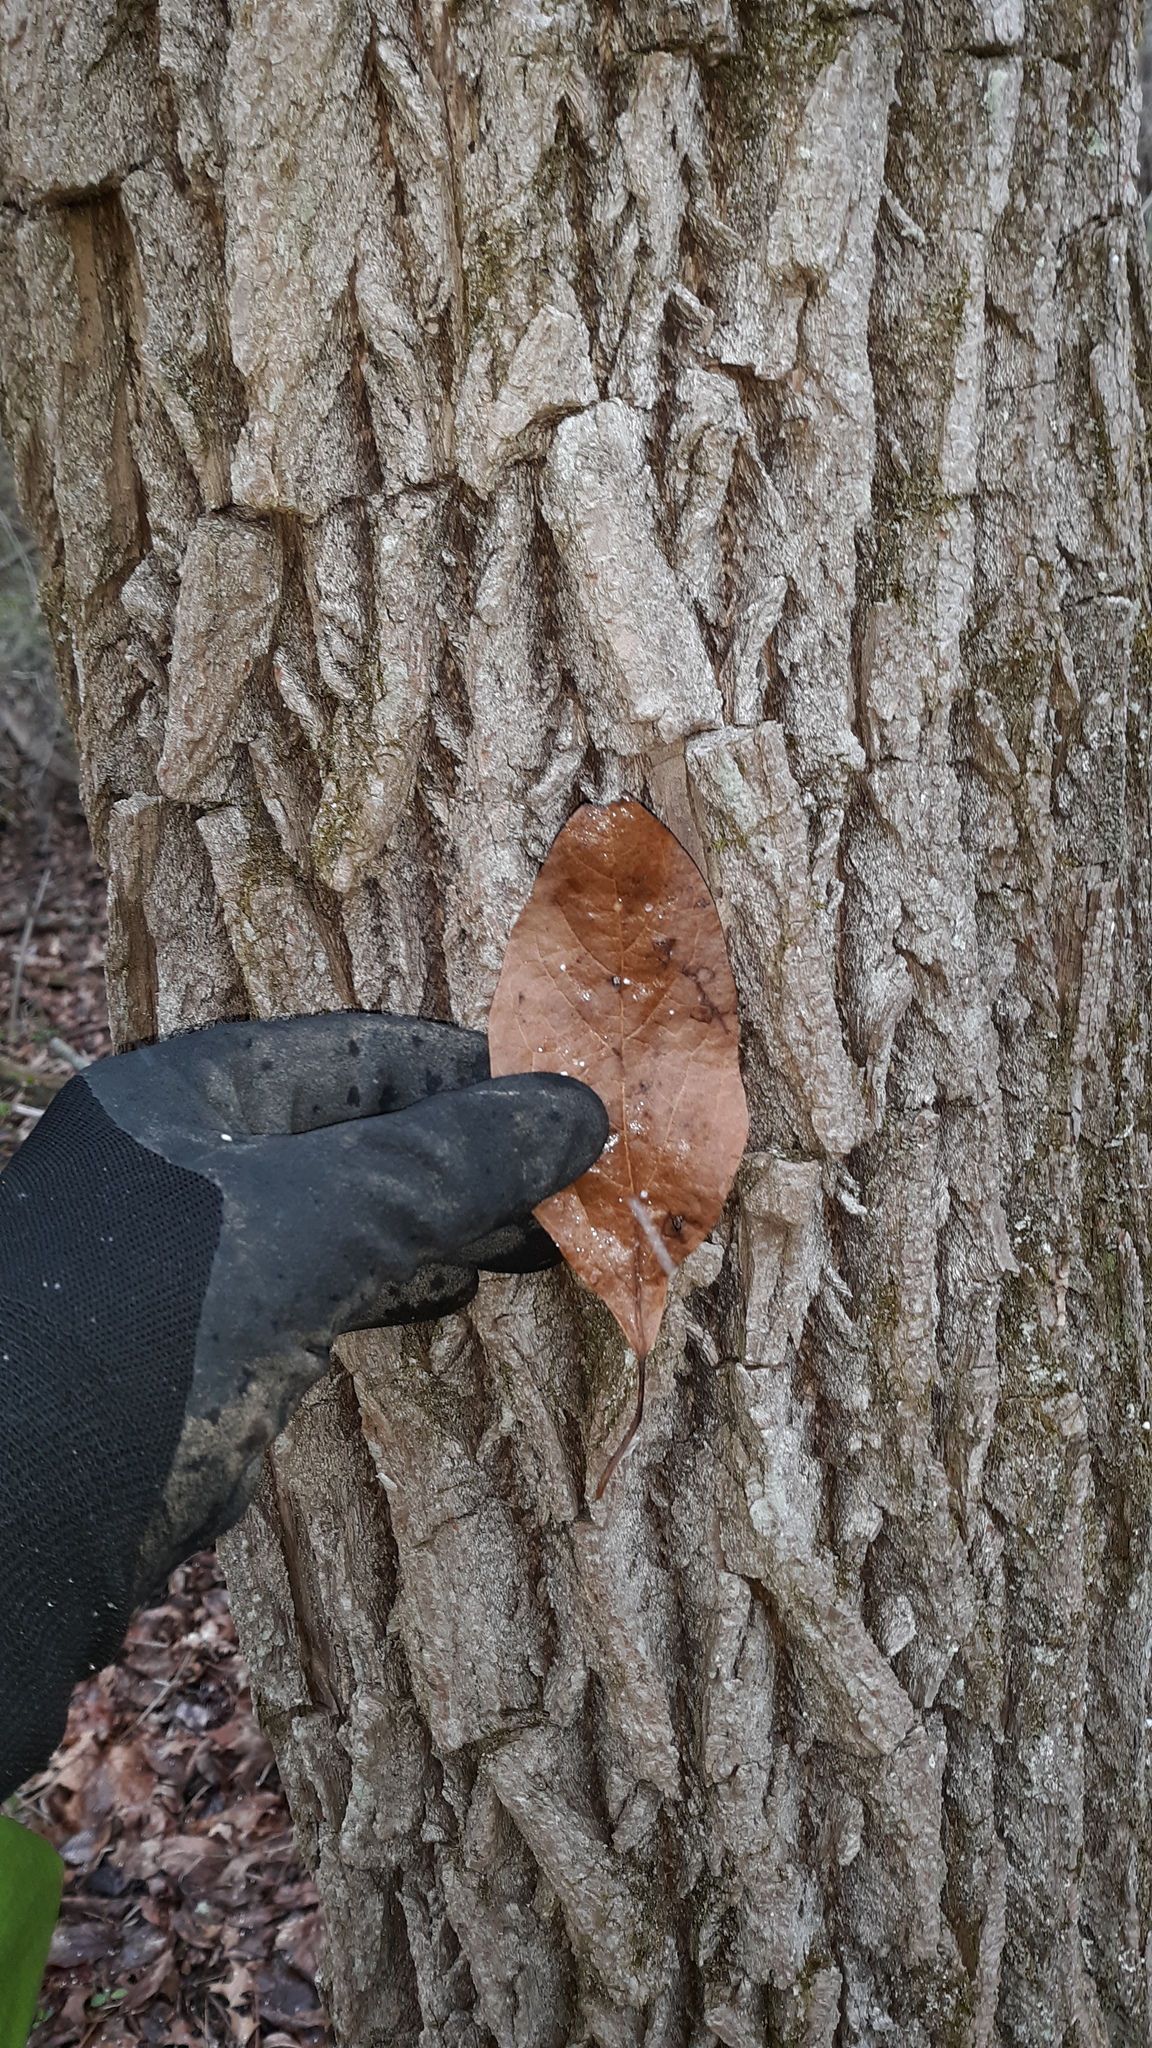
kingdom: Plantae
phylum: Tracheophyta
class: Magnoliopsida
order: Laurales
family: Lauraceae
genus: Sassafras
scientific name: Sassafras albidum
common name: Sassafras
